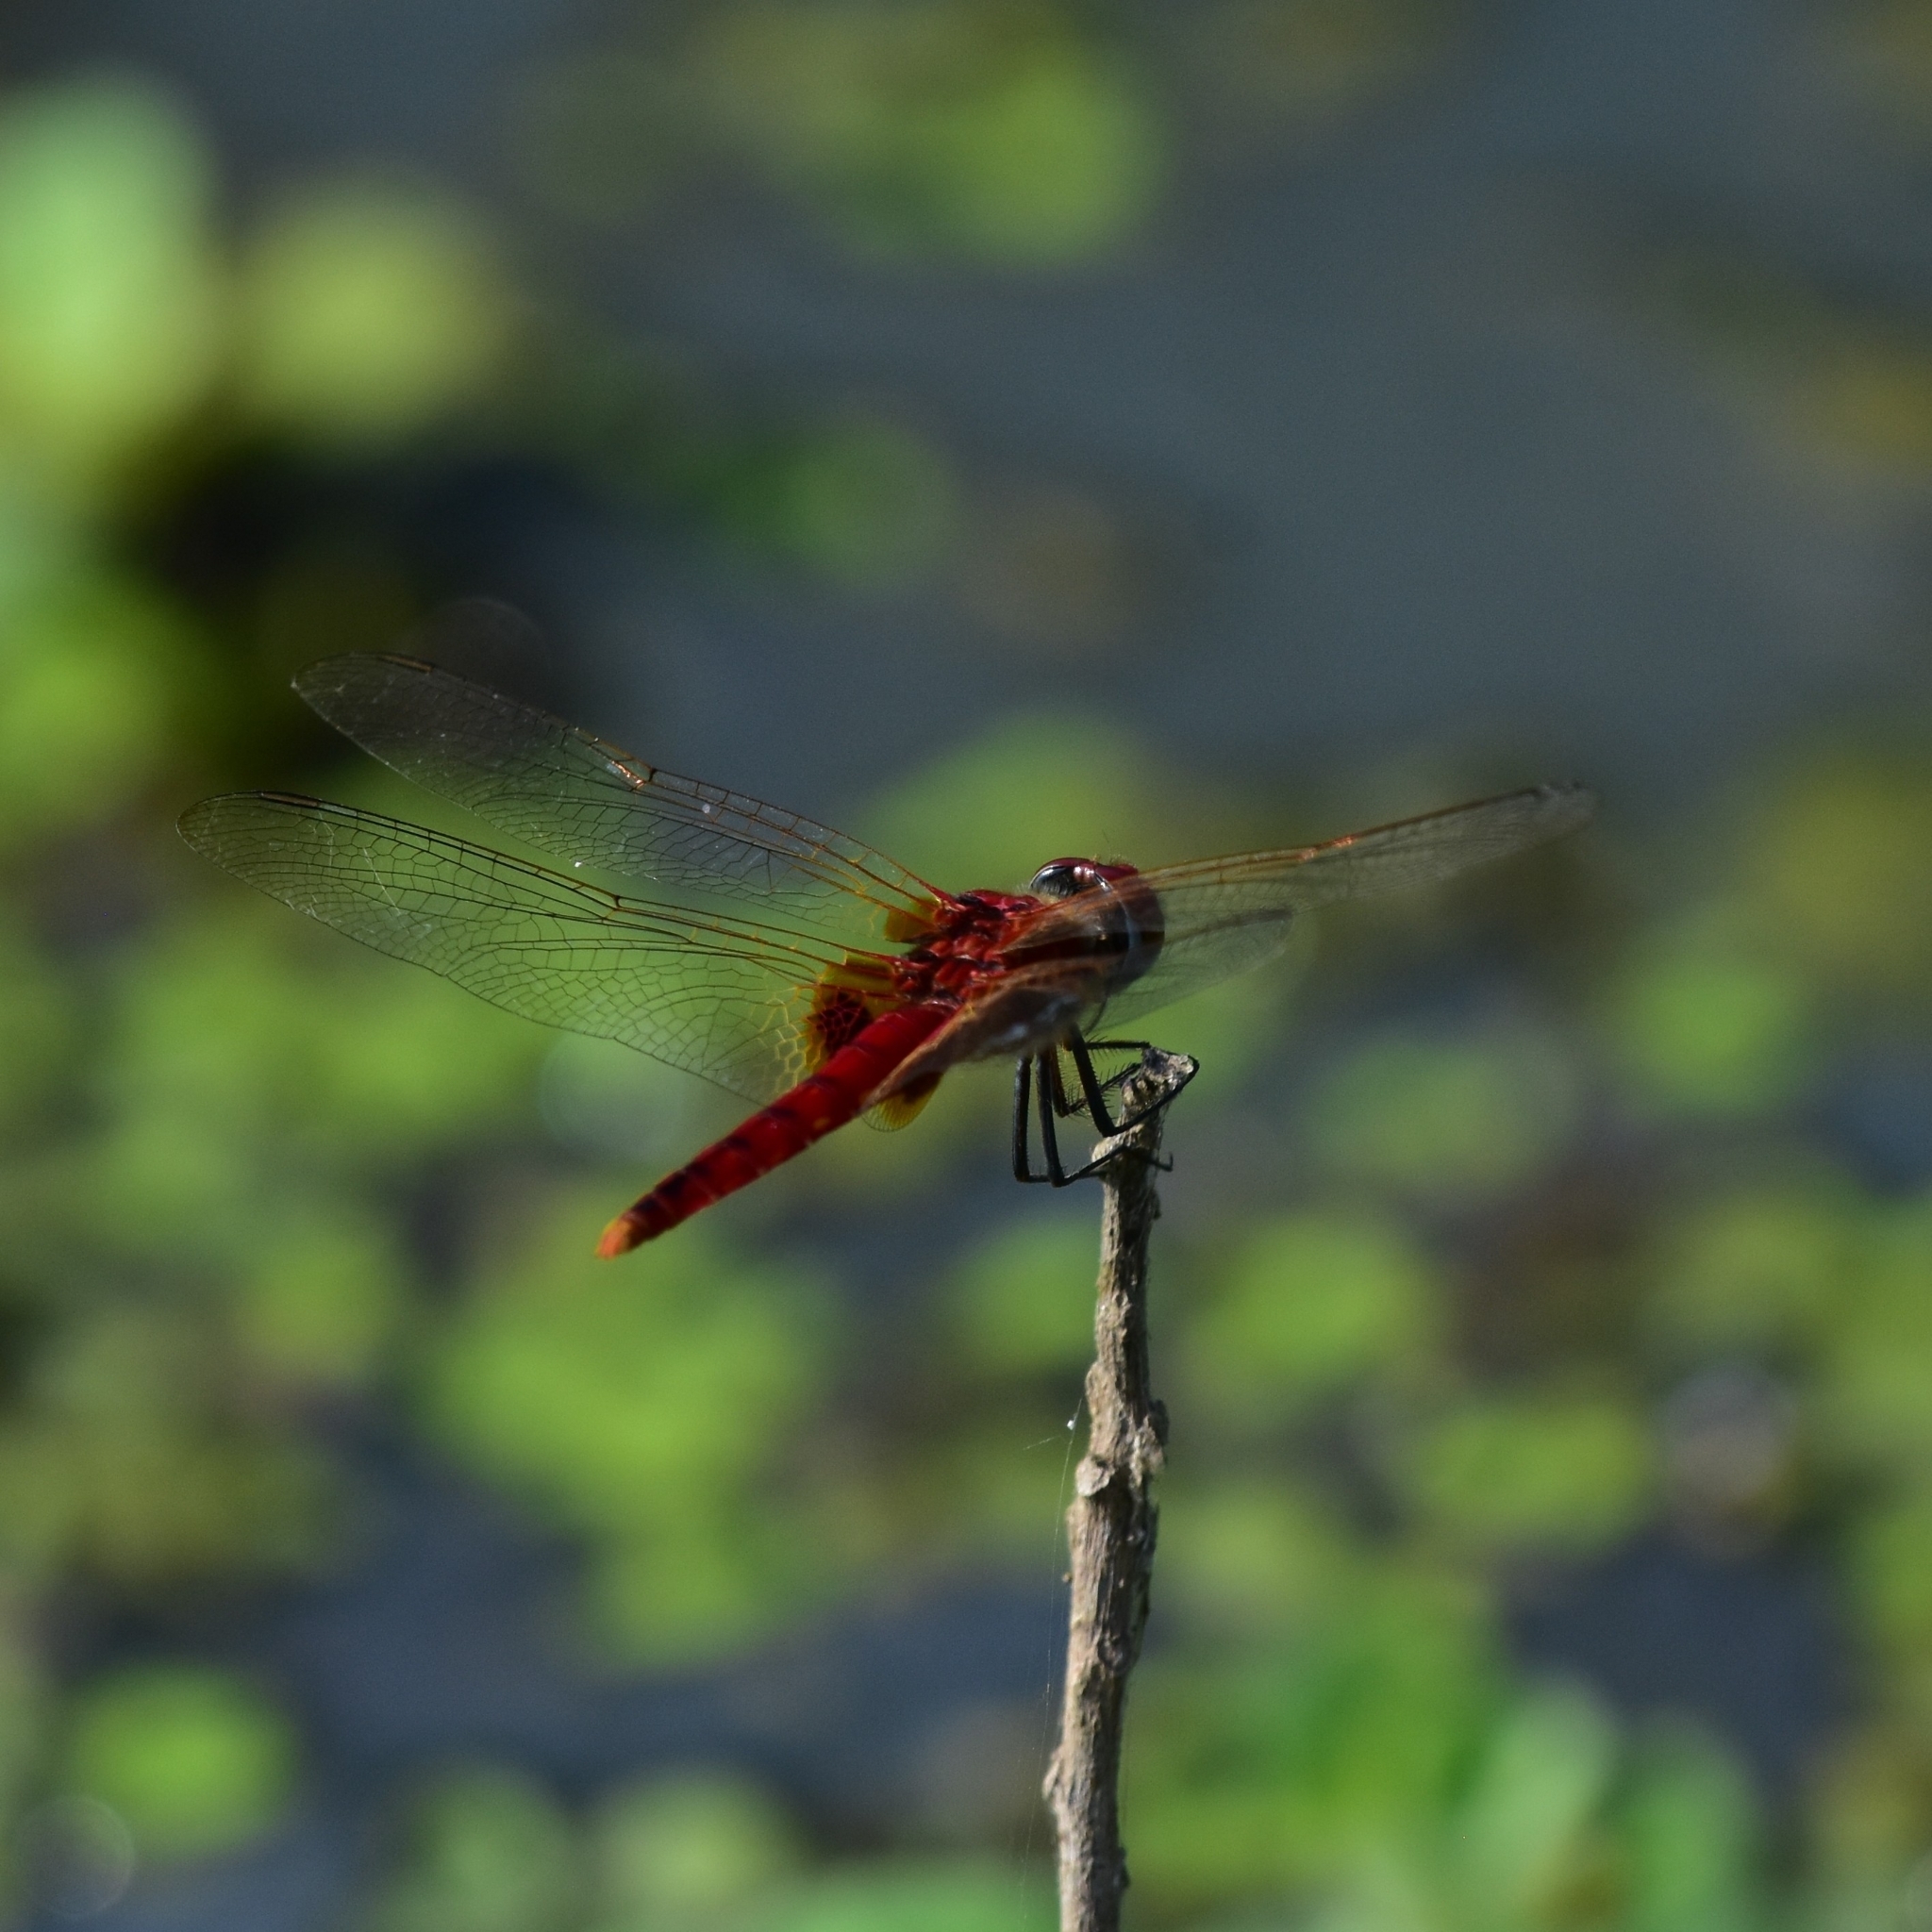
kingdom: Animalia
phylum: Arthropoda
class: Insecta
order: Odonata
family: Libellulidae
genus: Urothemis
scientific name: Urothemis signata
